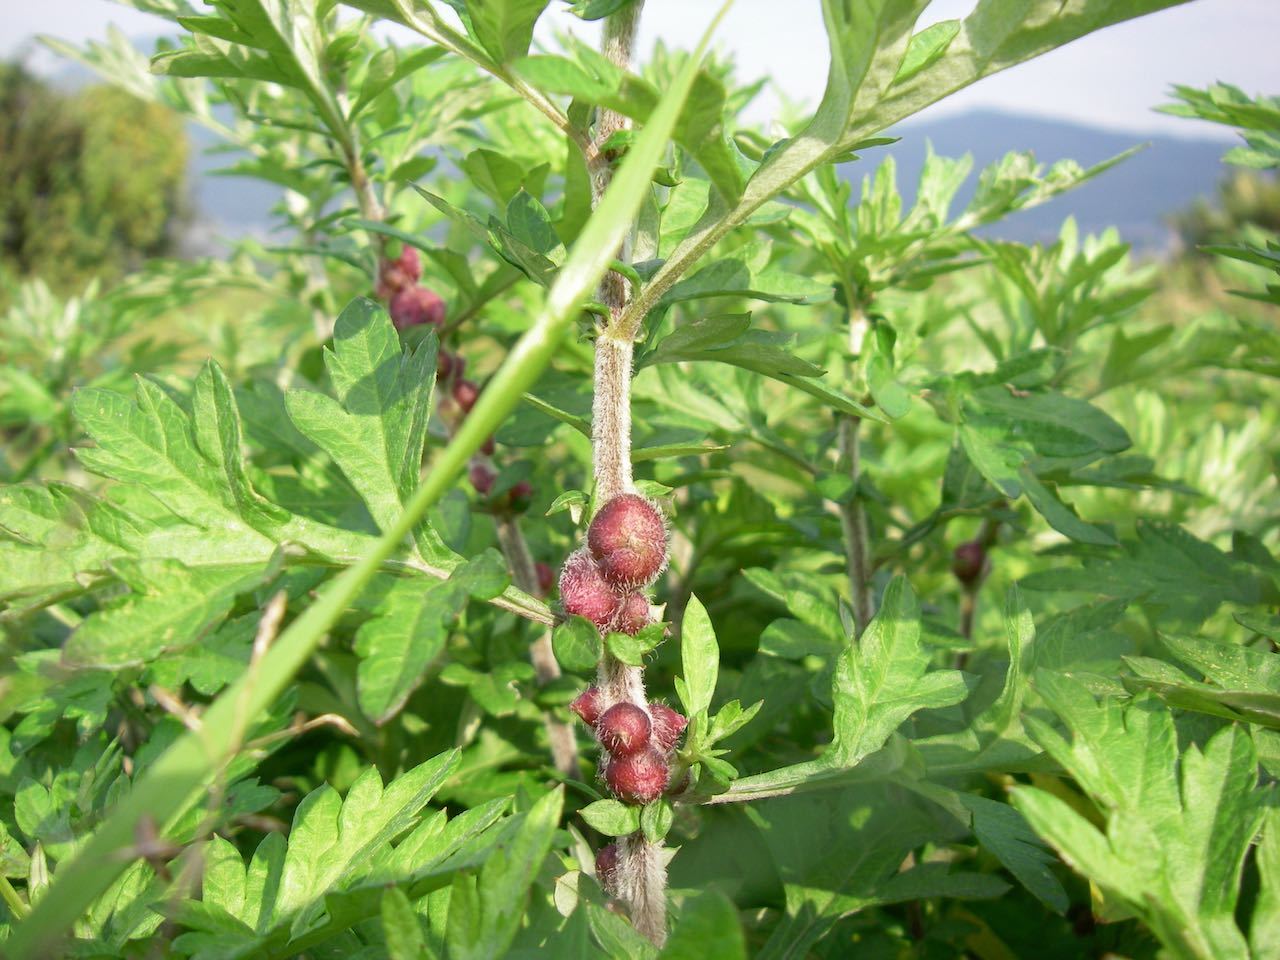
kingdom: Animalia
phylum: Arthropoda
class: Insecta
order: Diptera
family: Cecidomyiidae
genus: Rhopalomyia
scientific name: Rhopalomyia struma
